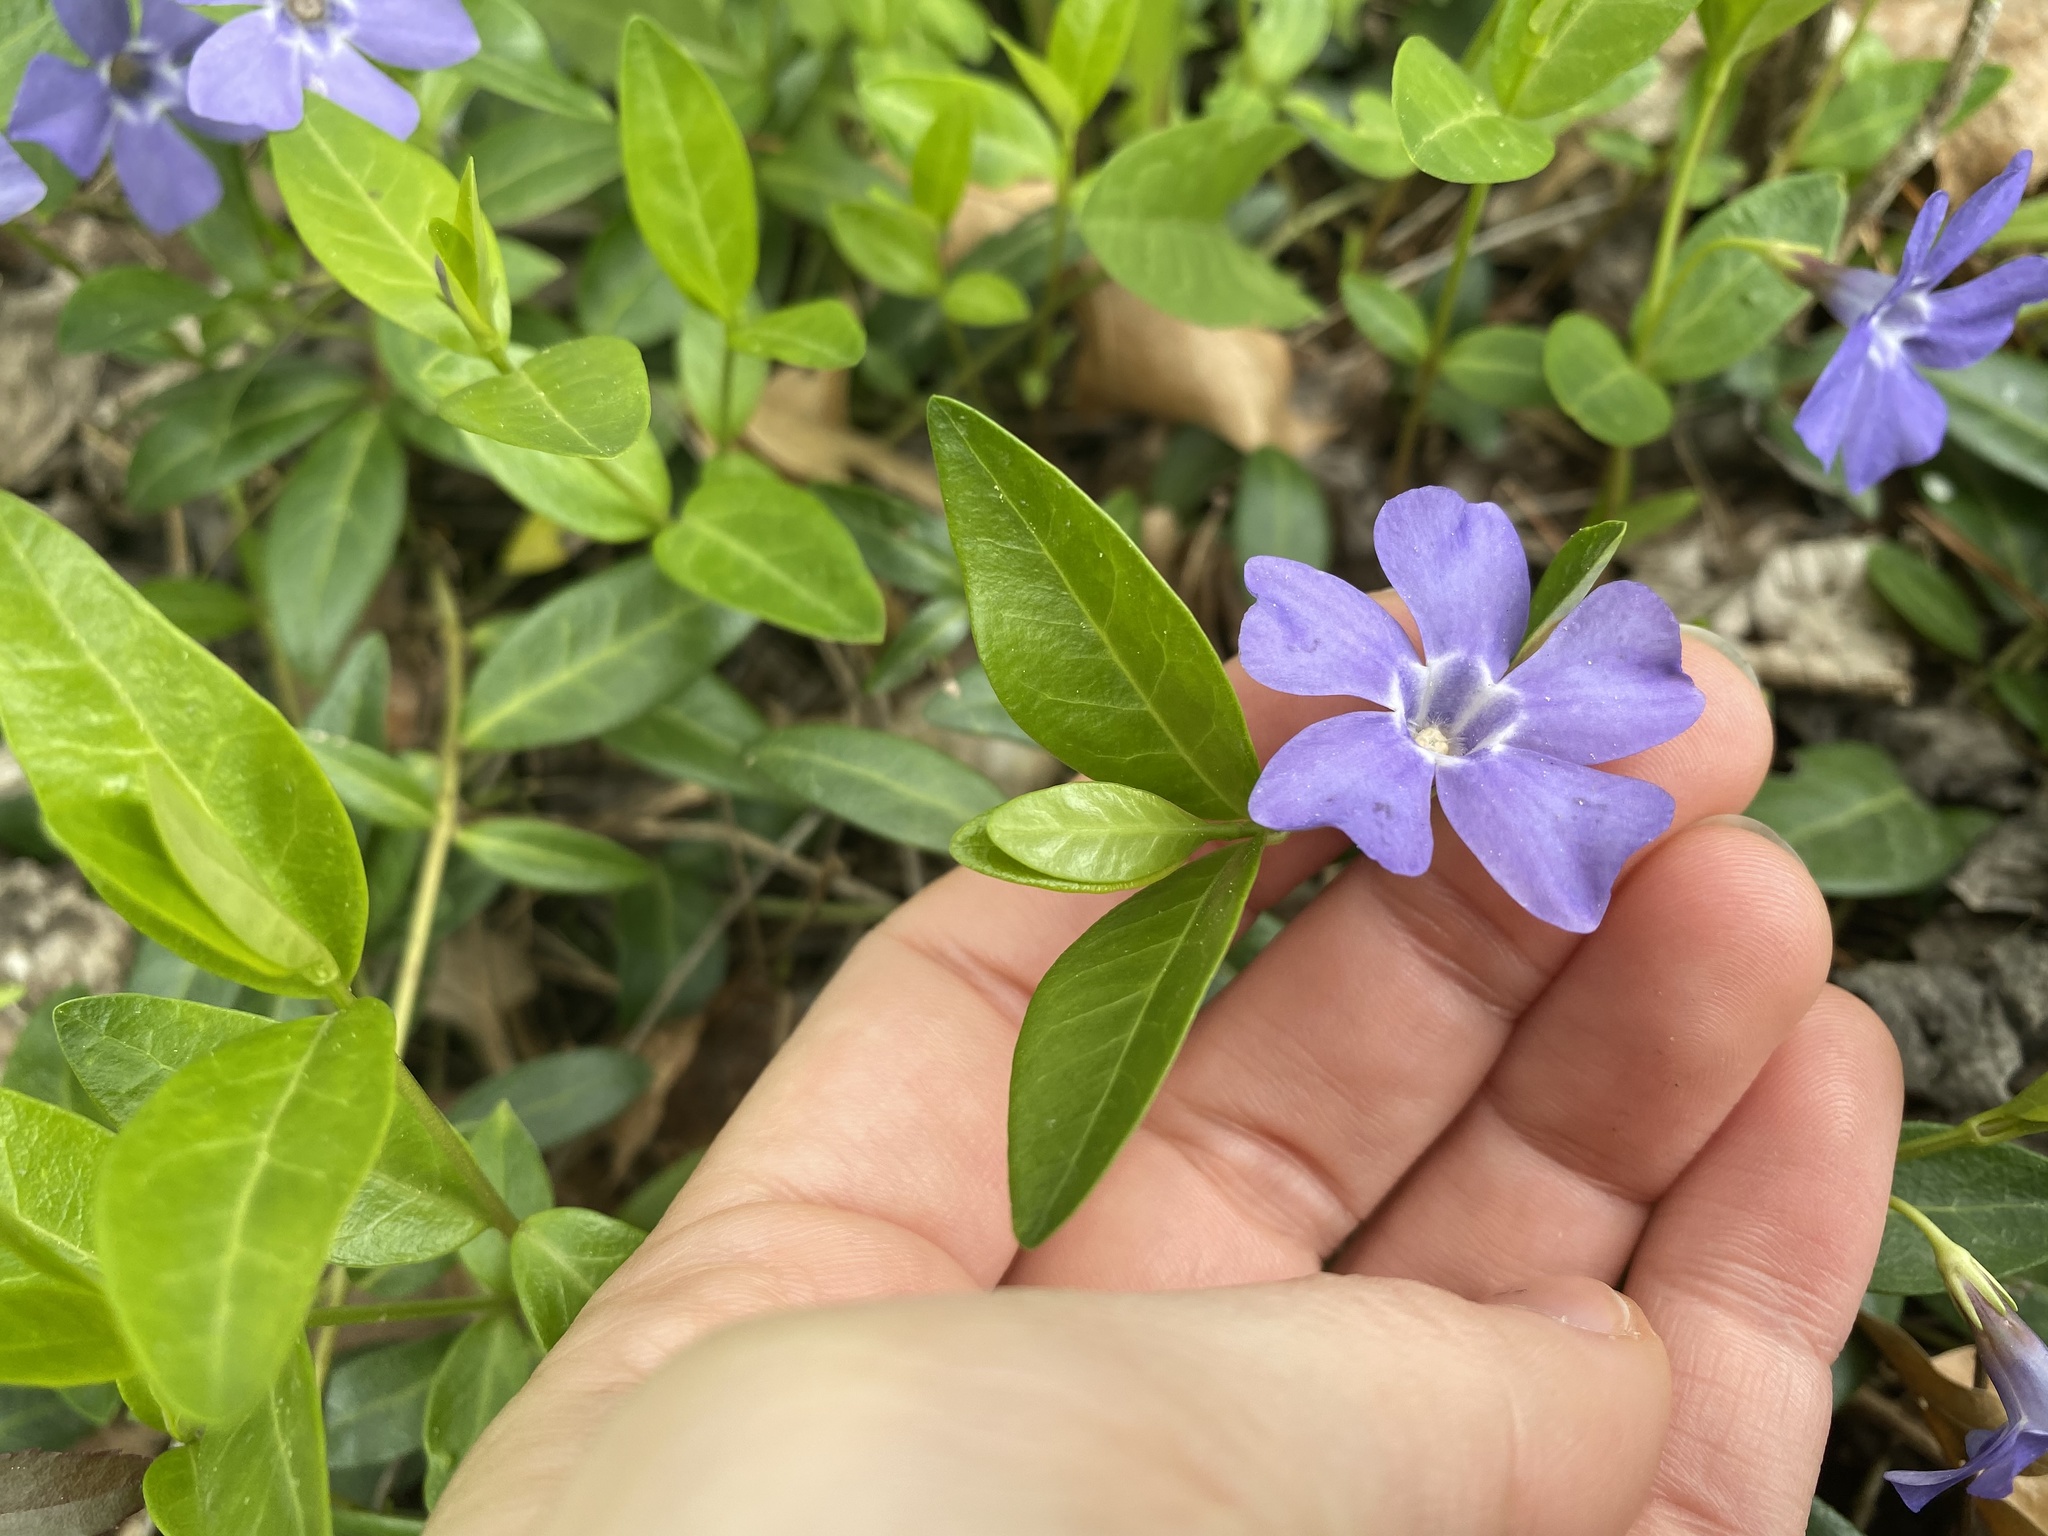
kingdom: Plantae
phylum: Tracheophyta
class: Magnoliopsida
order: Gentianales
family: Apocynaceae
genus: Vinca
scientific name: Vinca minor
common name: Lesser periwinkle
